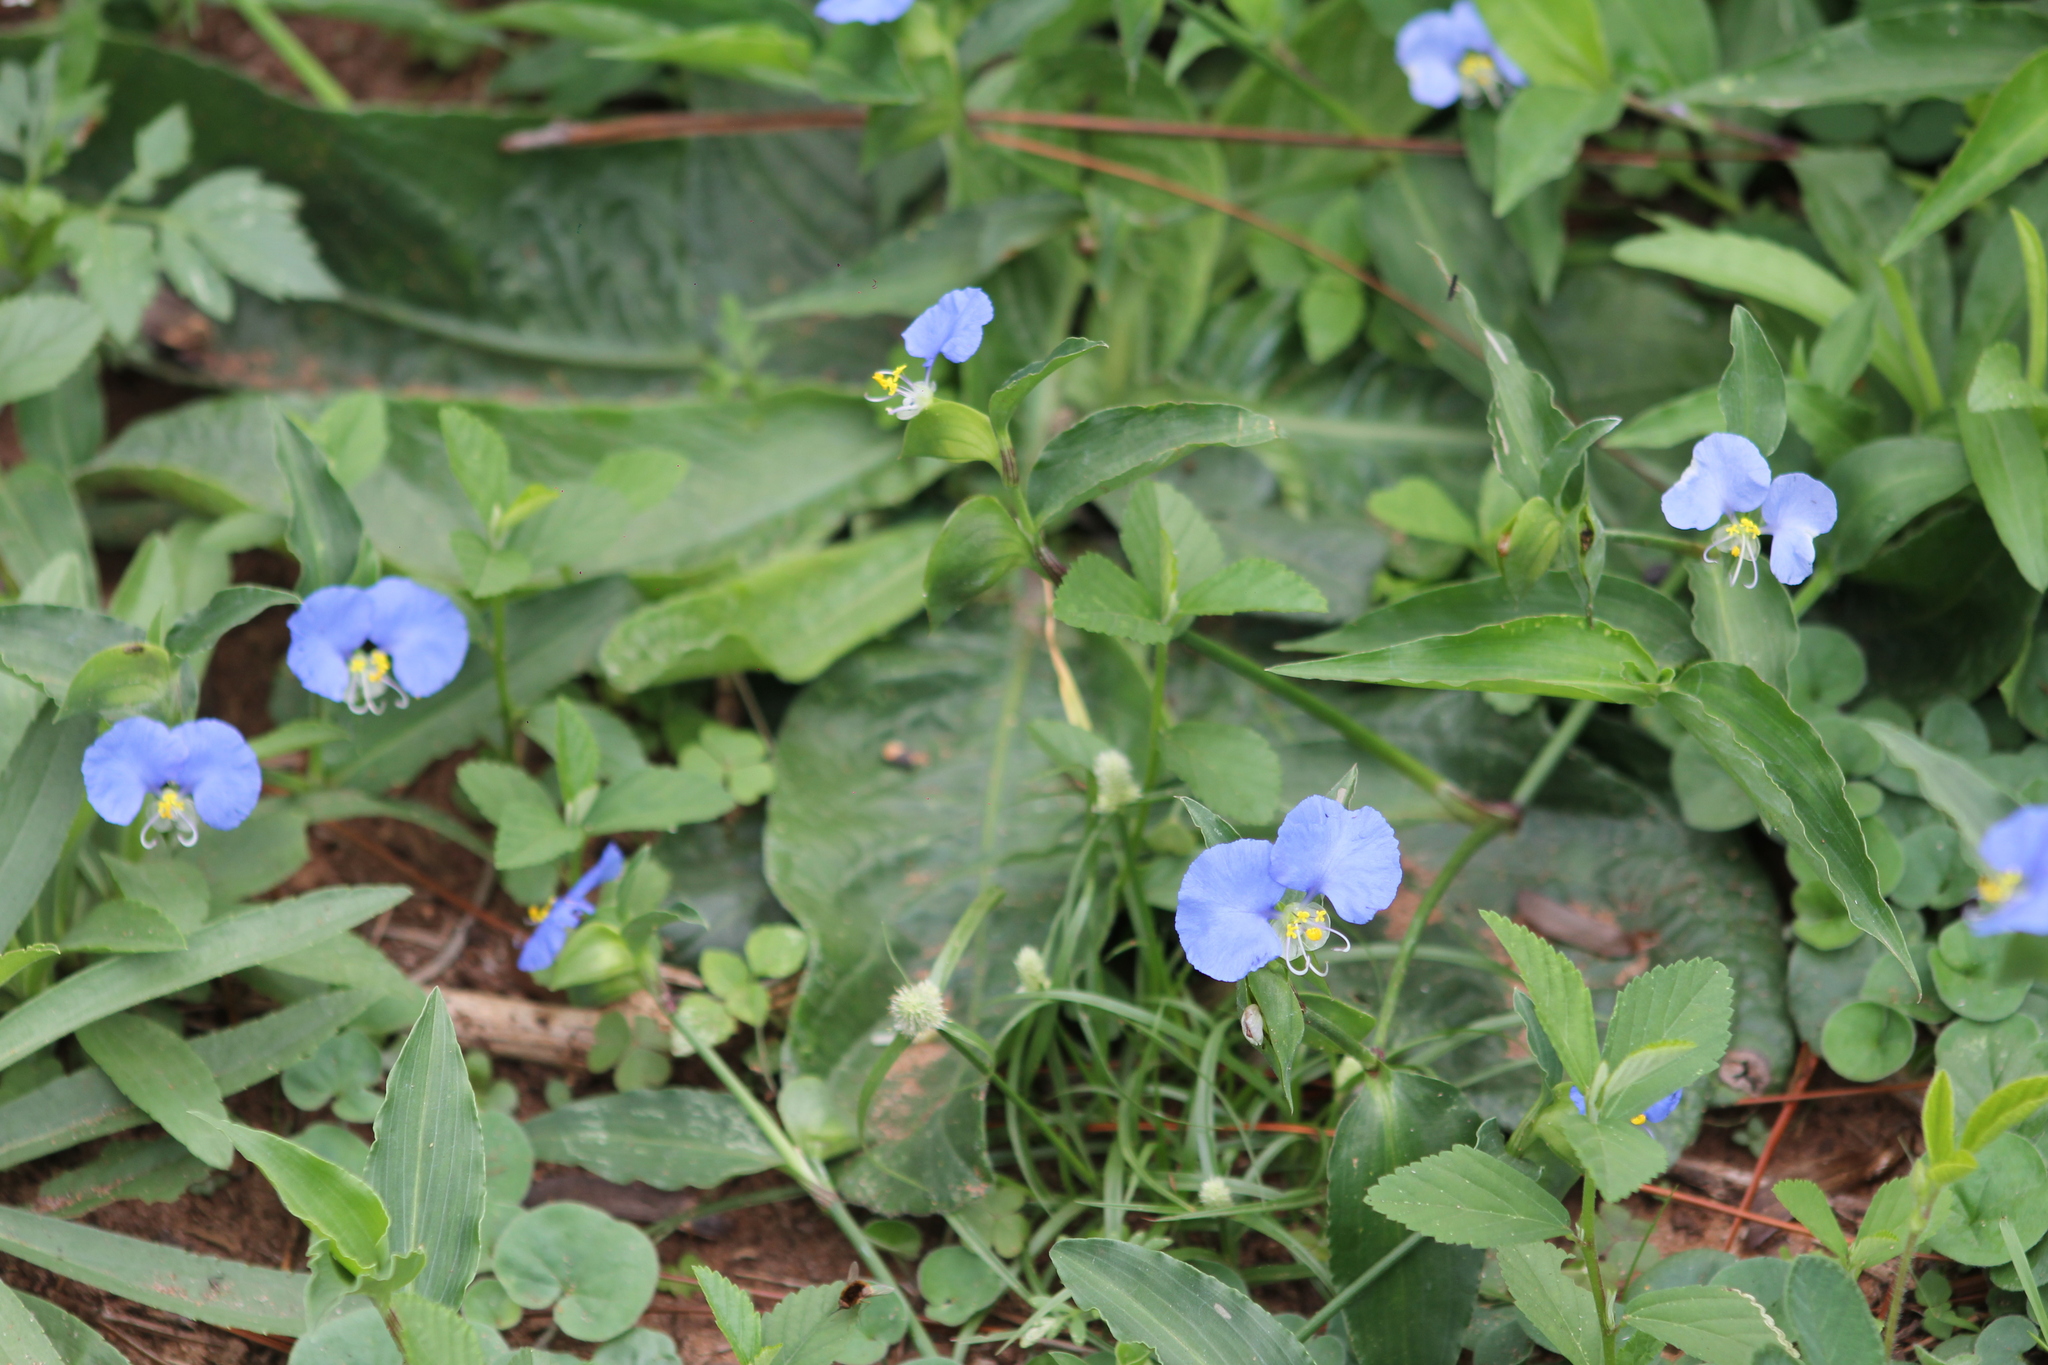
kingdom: Plantae
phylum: Tracheophyta
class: Liliopsida
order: Commelinales
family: Commelinaceae
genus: Commelina
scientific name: Commelina erecta
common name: Blousel blommetjie
